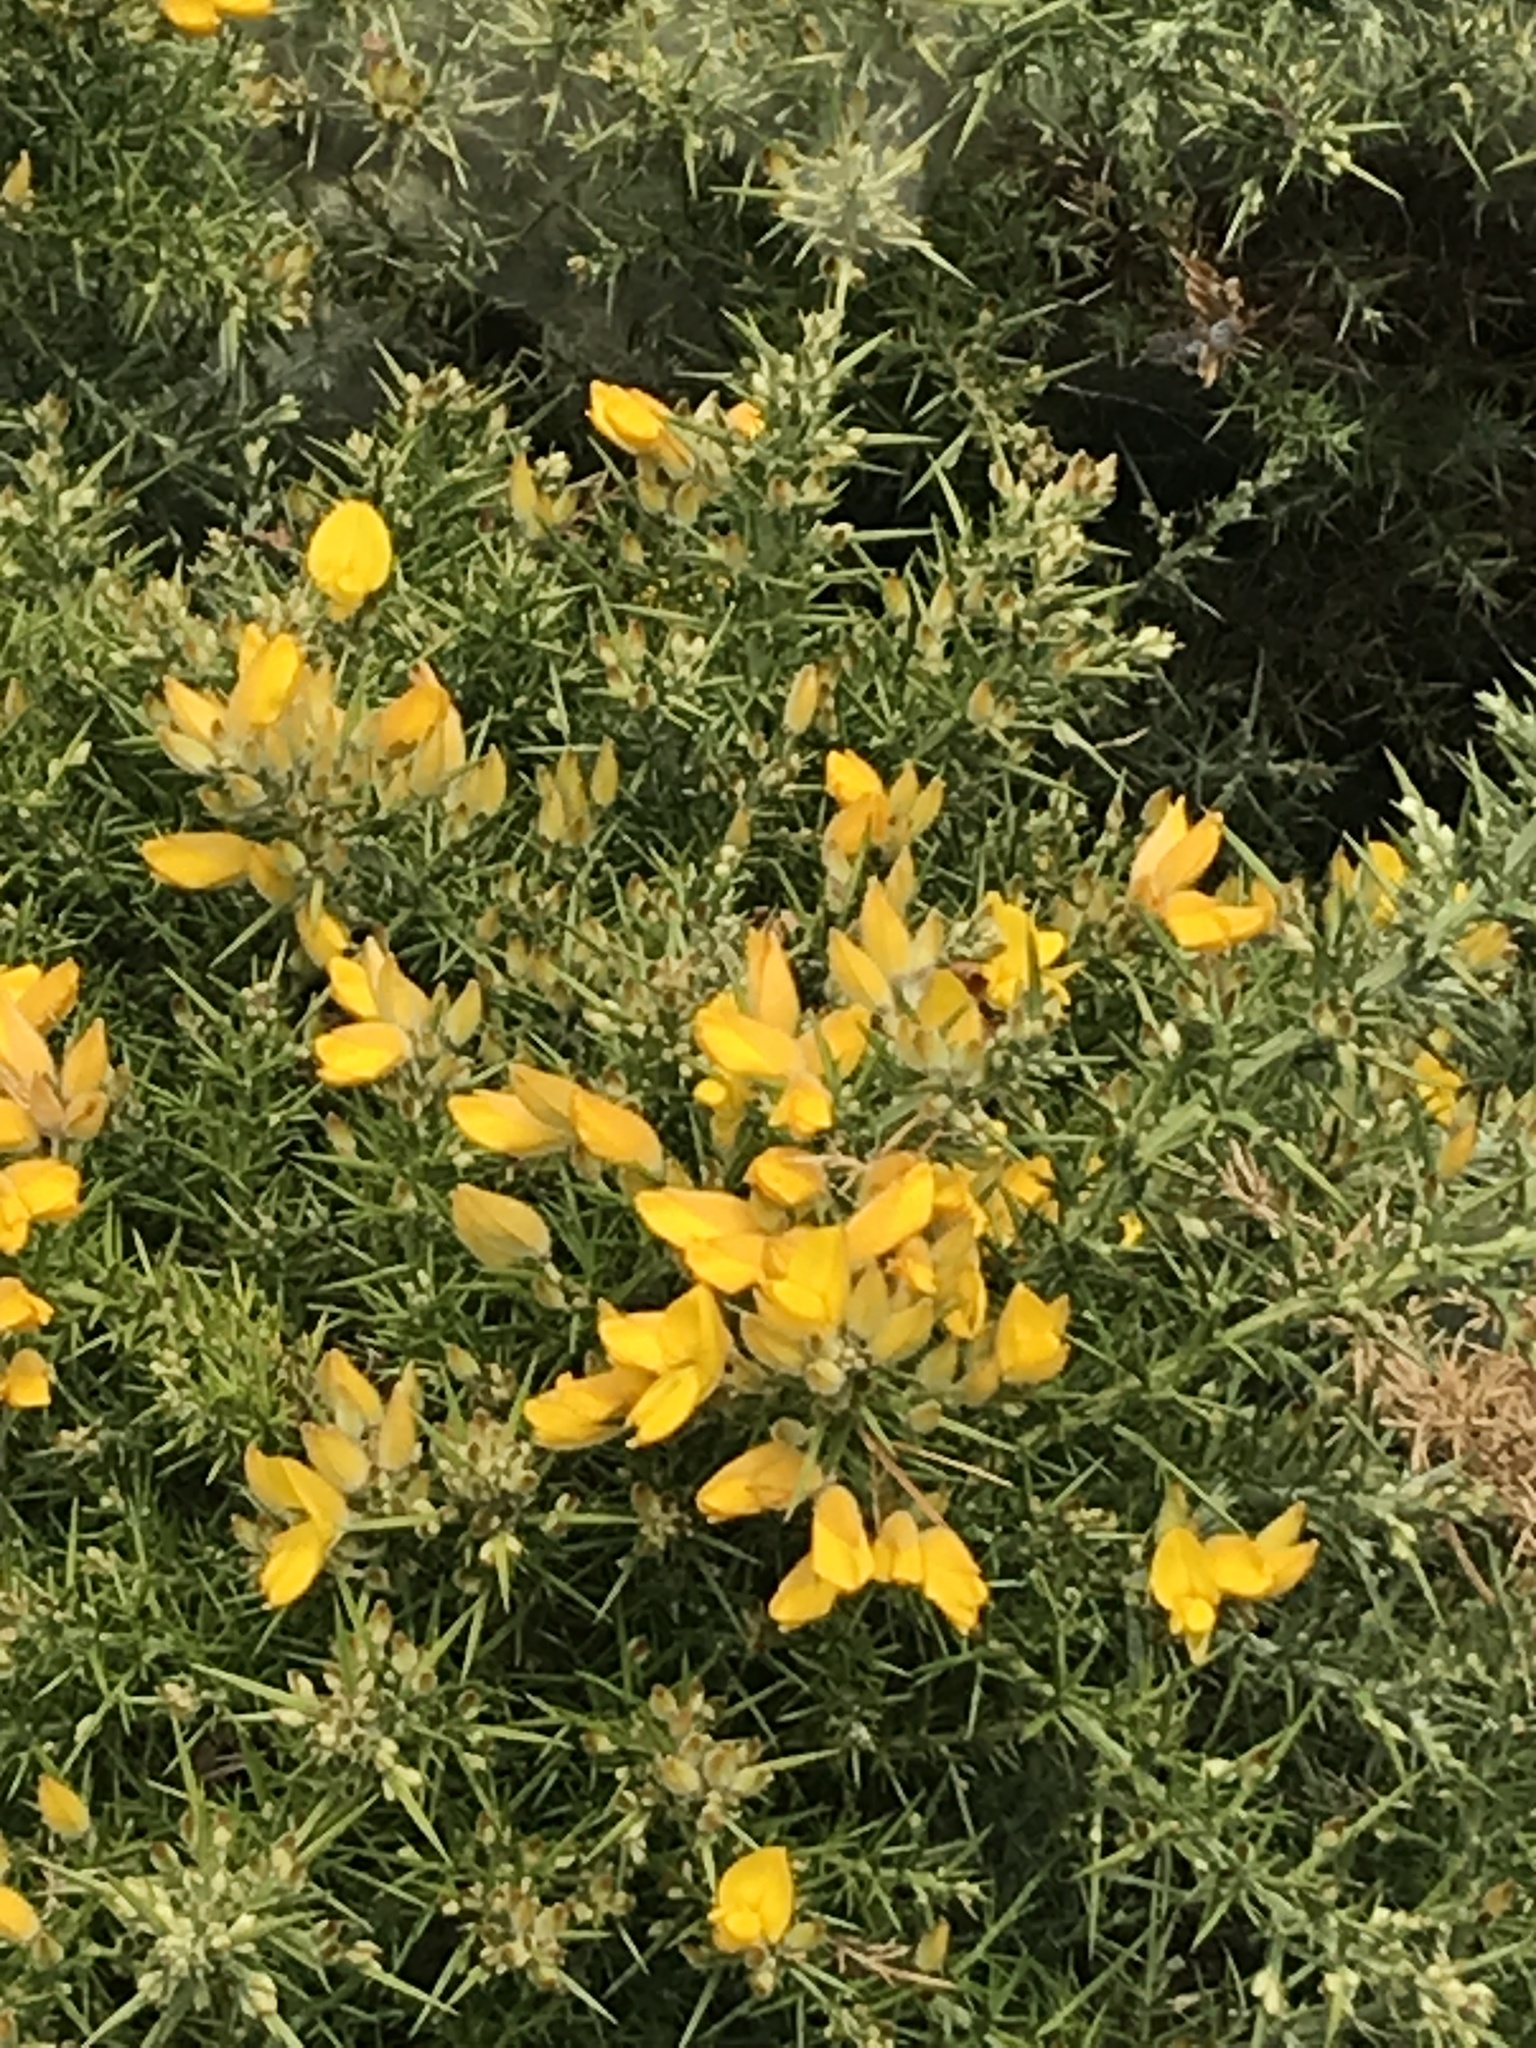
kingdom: Plantae
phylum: Tracheophyta
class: Magnoliopsida
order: Fabales
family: Fabaceae
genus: Ulex
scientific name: Ulex europaeus
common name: Common gorse
